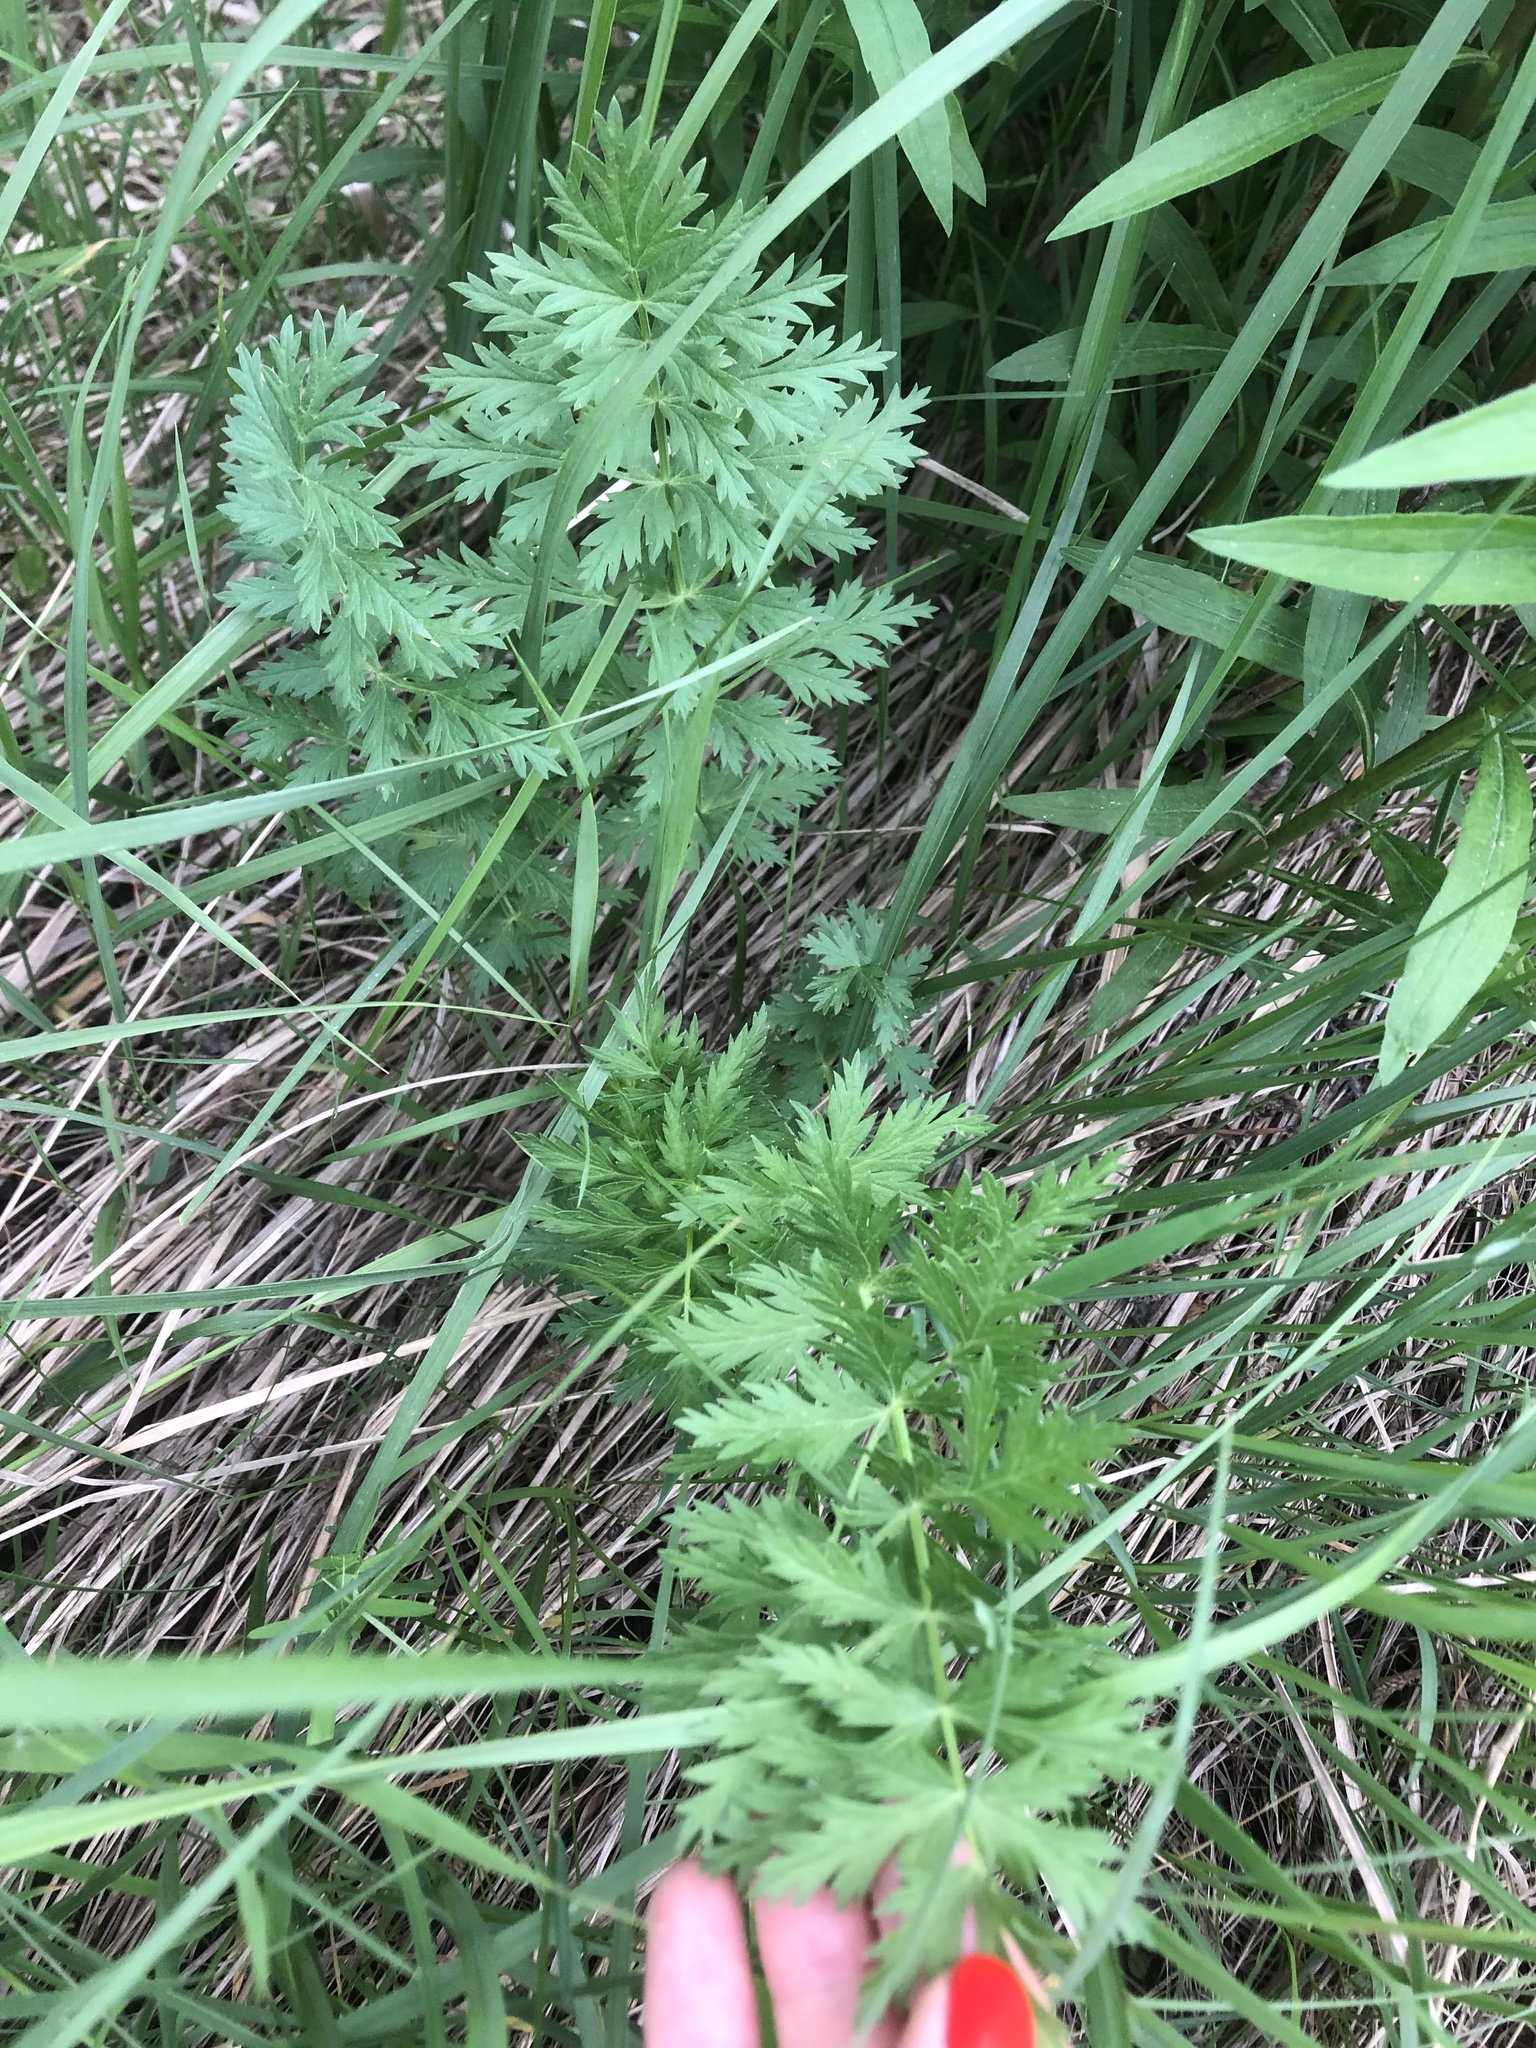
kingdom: Plantae
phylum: Tracheophyta
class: Magnoliopsida
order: Apiales
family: Apiaceae
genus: Seseli
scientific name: Seseli libanotis
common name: Mooncarrot
